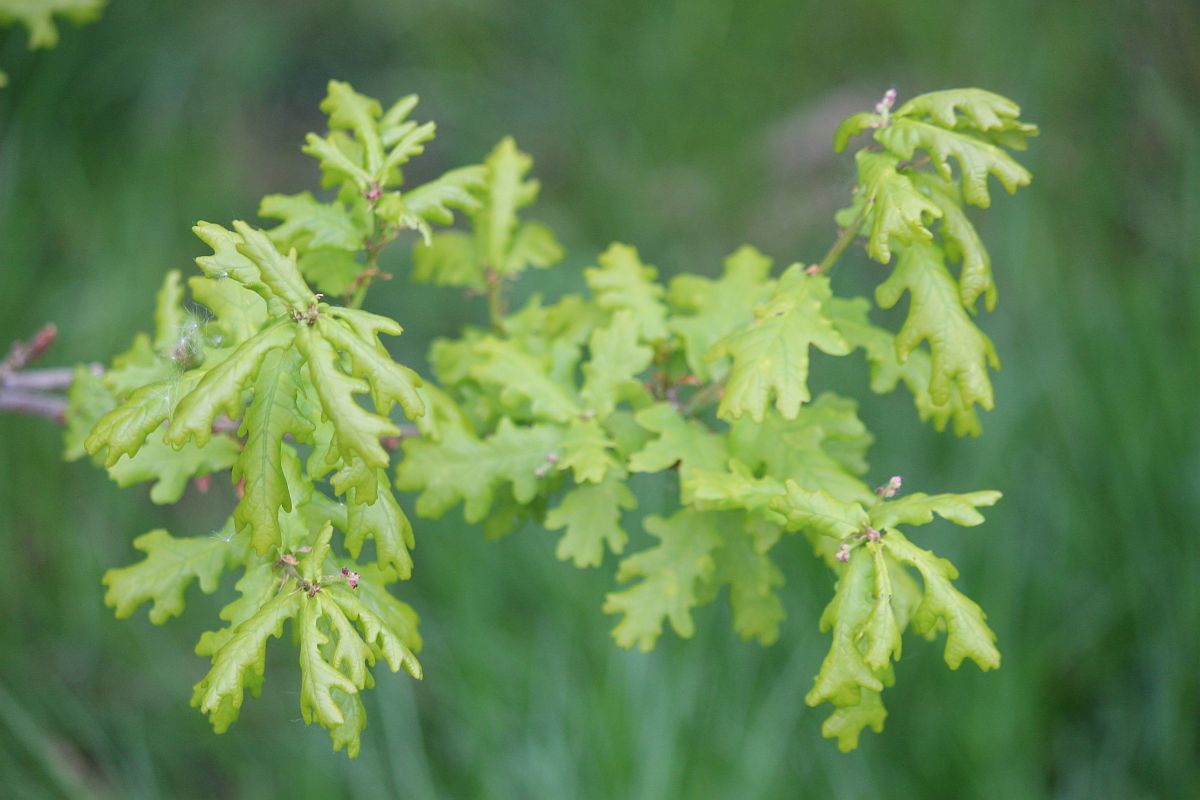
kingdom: Plantae
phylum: Tracheophyta
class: Magnoliopsida
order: Fagales
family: Fagaceae
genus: Quercus
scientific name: Quercus robur
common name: Pedunculate oak
